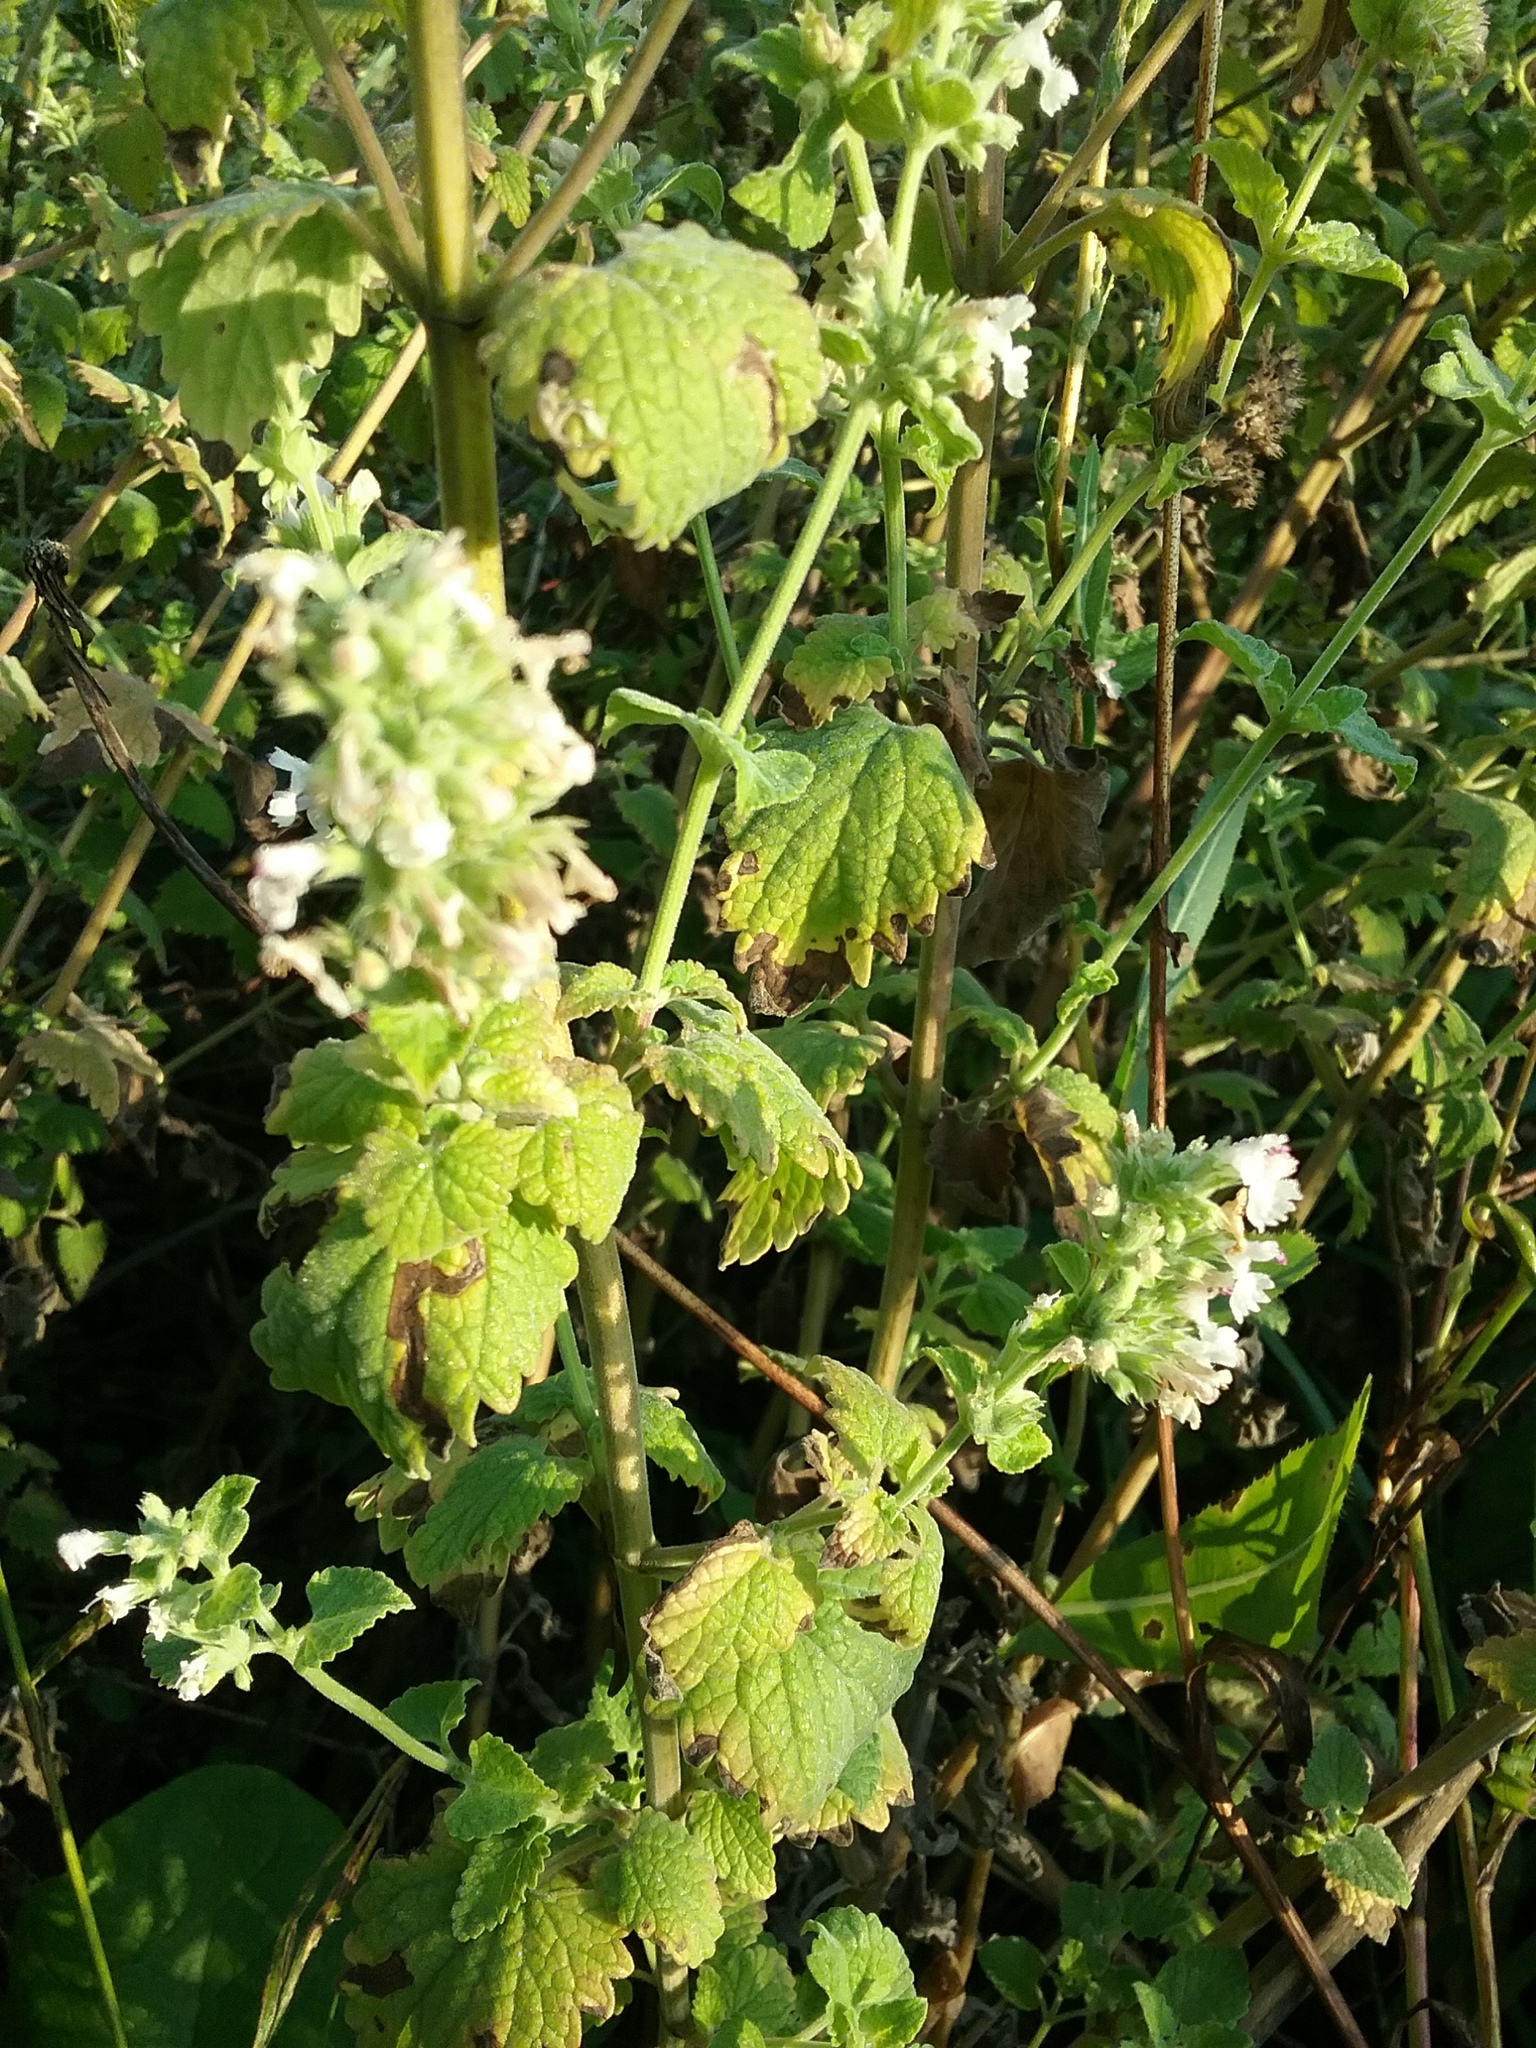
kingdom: Plantae
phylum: Tracheophyta
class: Magnoliopsida
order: Lamiales
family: Lamiaceae
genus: Nepeta
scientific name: Nepeta cataria
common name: Catnip
